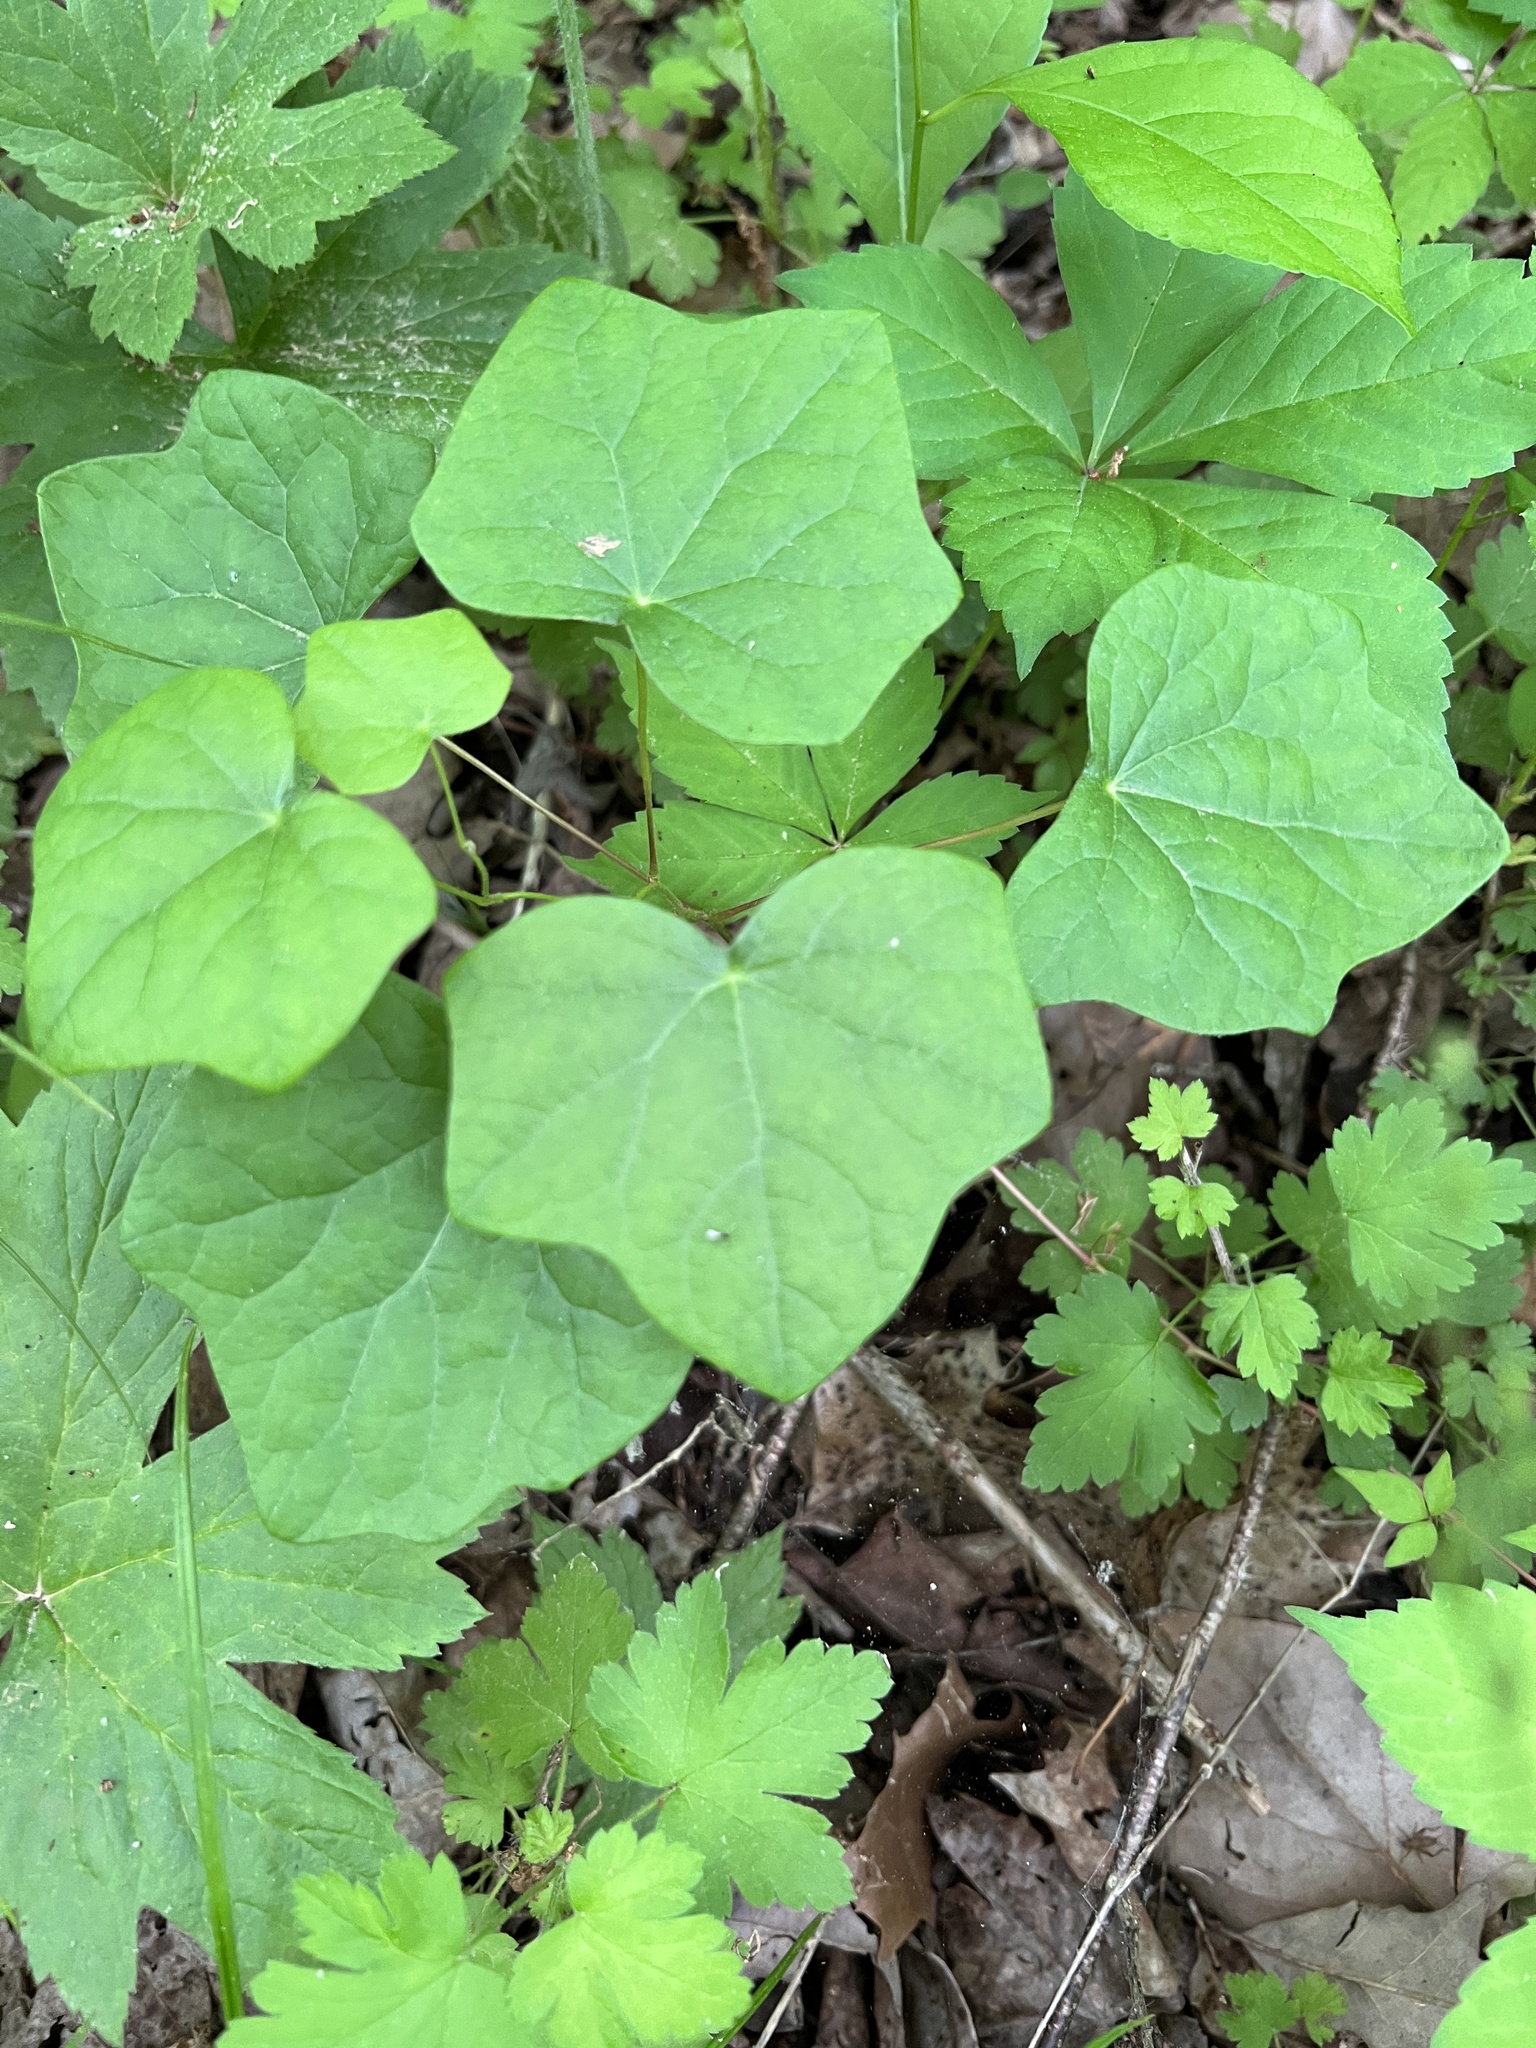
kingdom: Plantae
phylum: Tracheophyta
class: Magnoliopsida
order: Ranunculales
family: Menispermaceae
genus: Menispermum
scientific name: Menispermum canadense
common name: Moonseed
